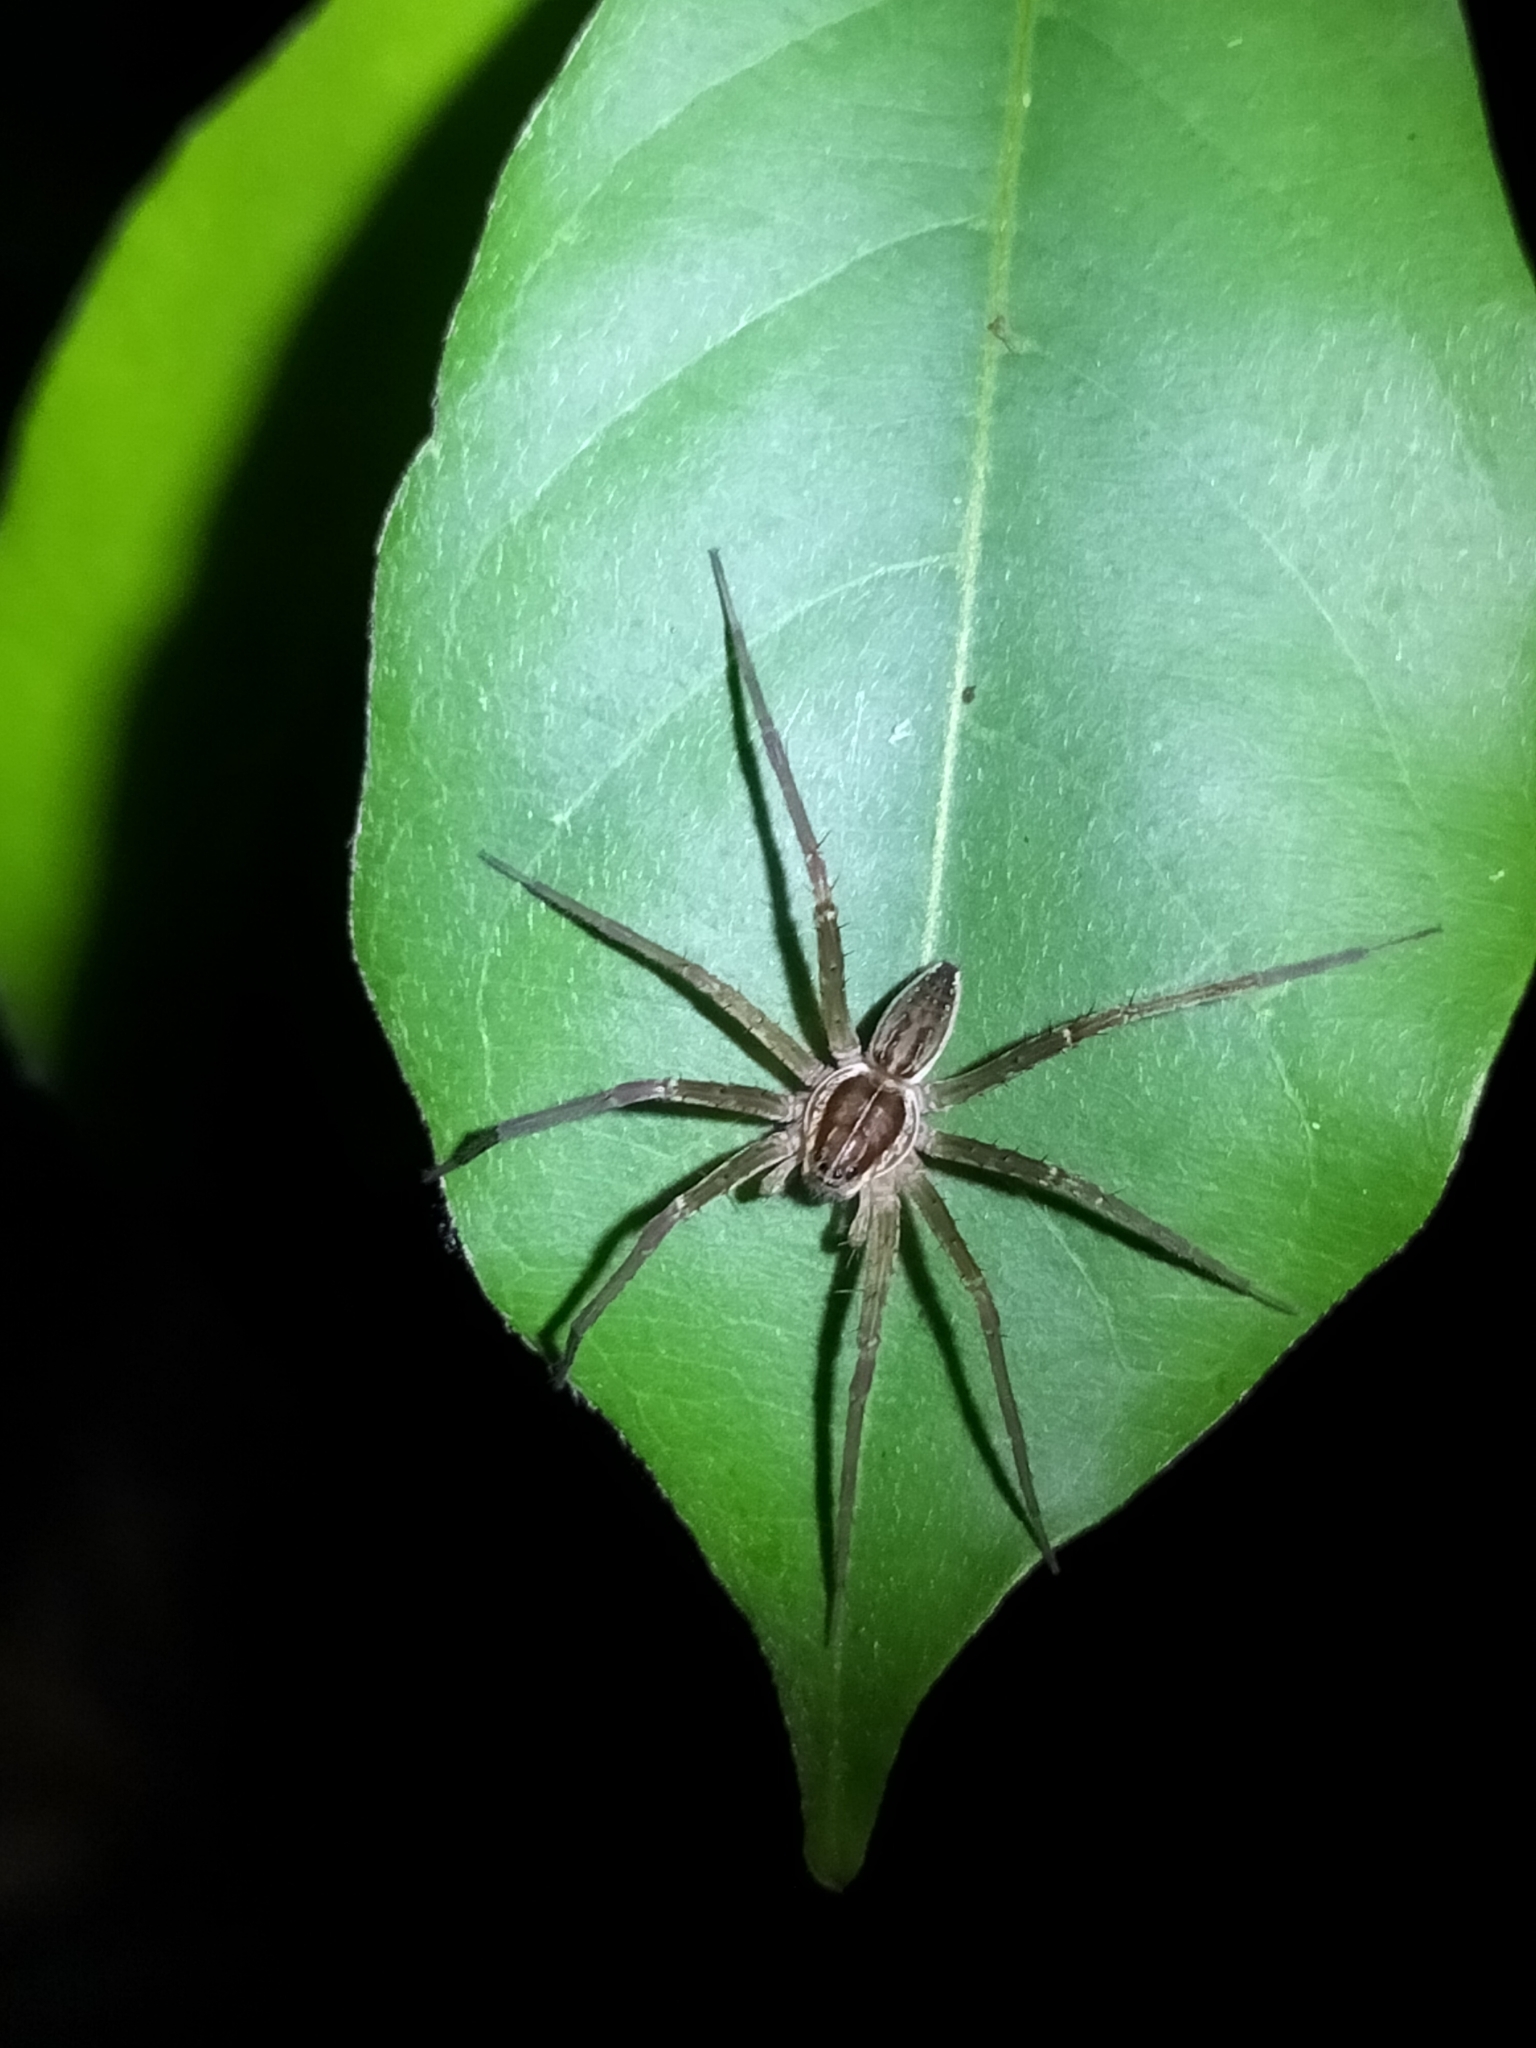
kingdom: Animalia
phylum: Arthropoda
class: Arachnida
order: Araneae
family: Pisauridae
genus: Dolomedes
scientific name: Dolomedes facetus
